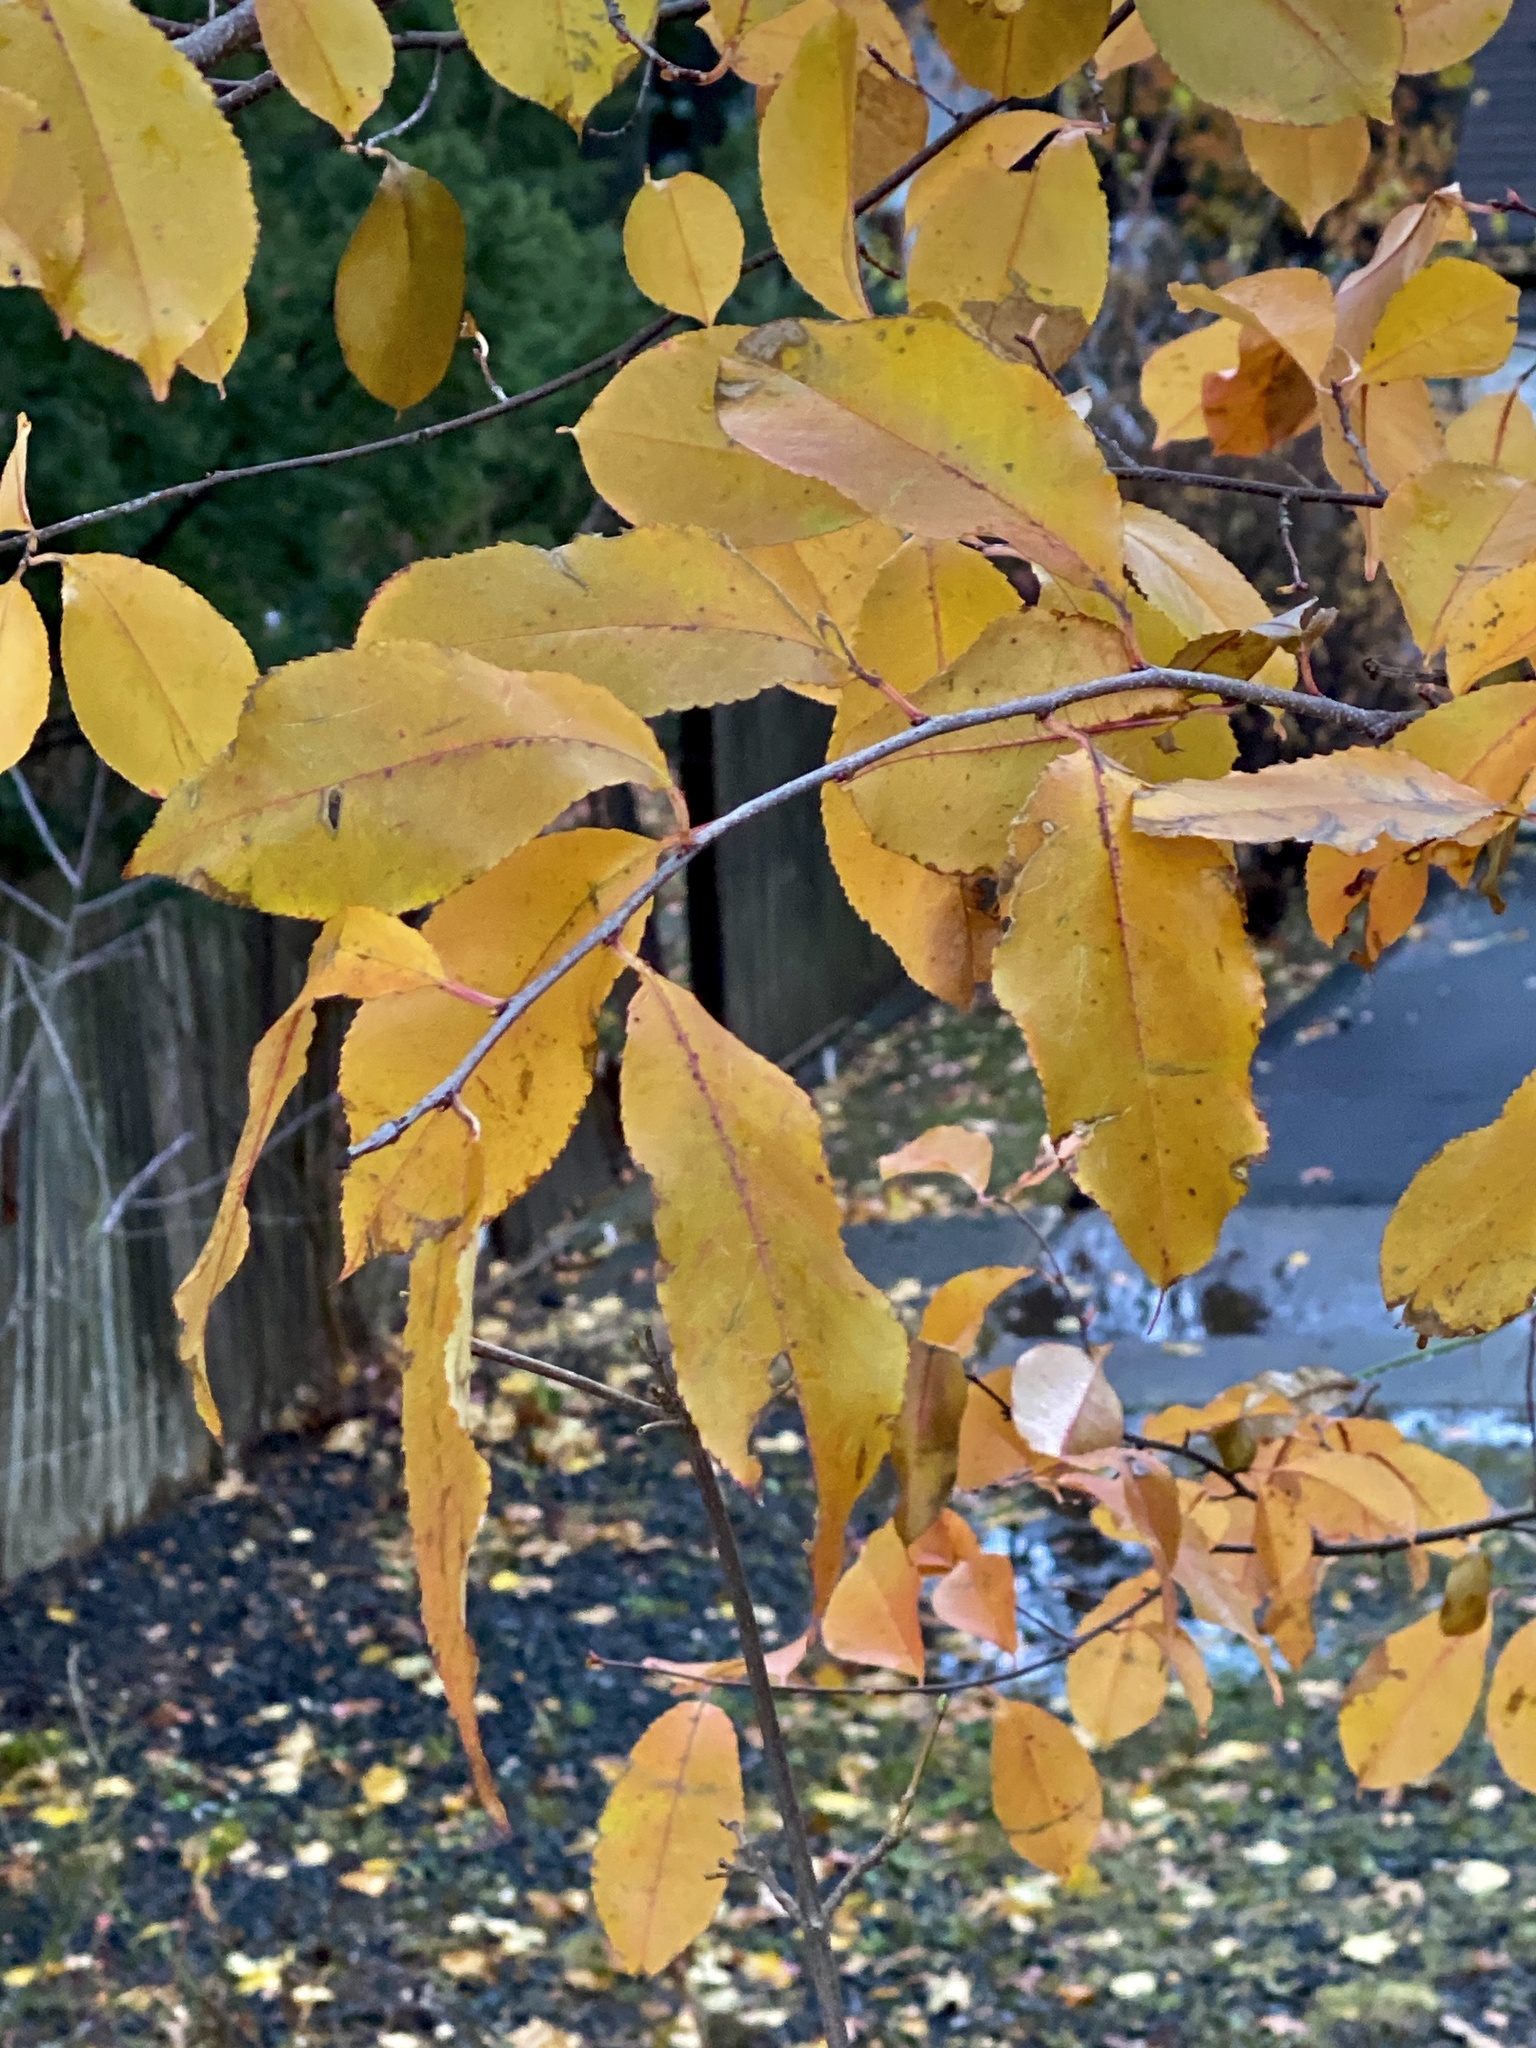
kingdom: Plantae
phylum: Tracheophyta
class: Magnoliopsida
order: Rosales
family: Rosaceae
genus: Prunus
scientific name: Prunus serotina
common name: Black cherry
